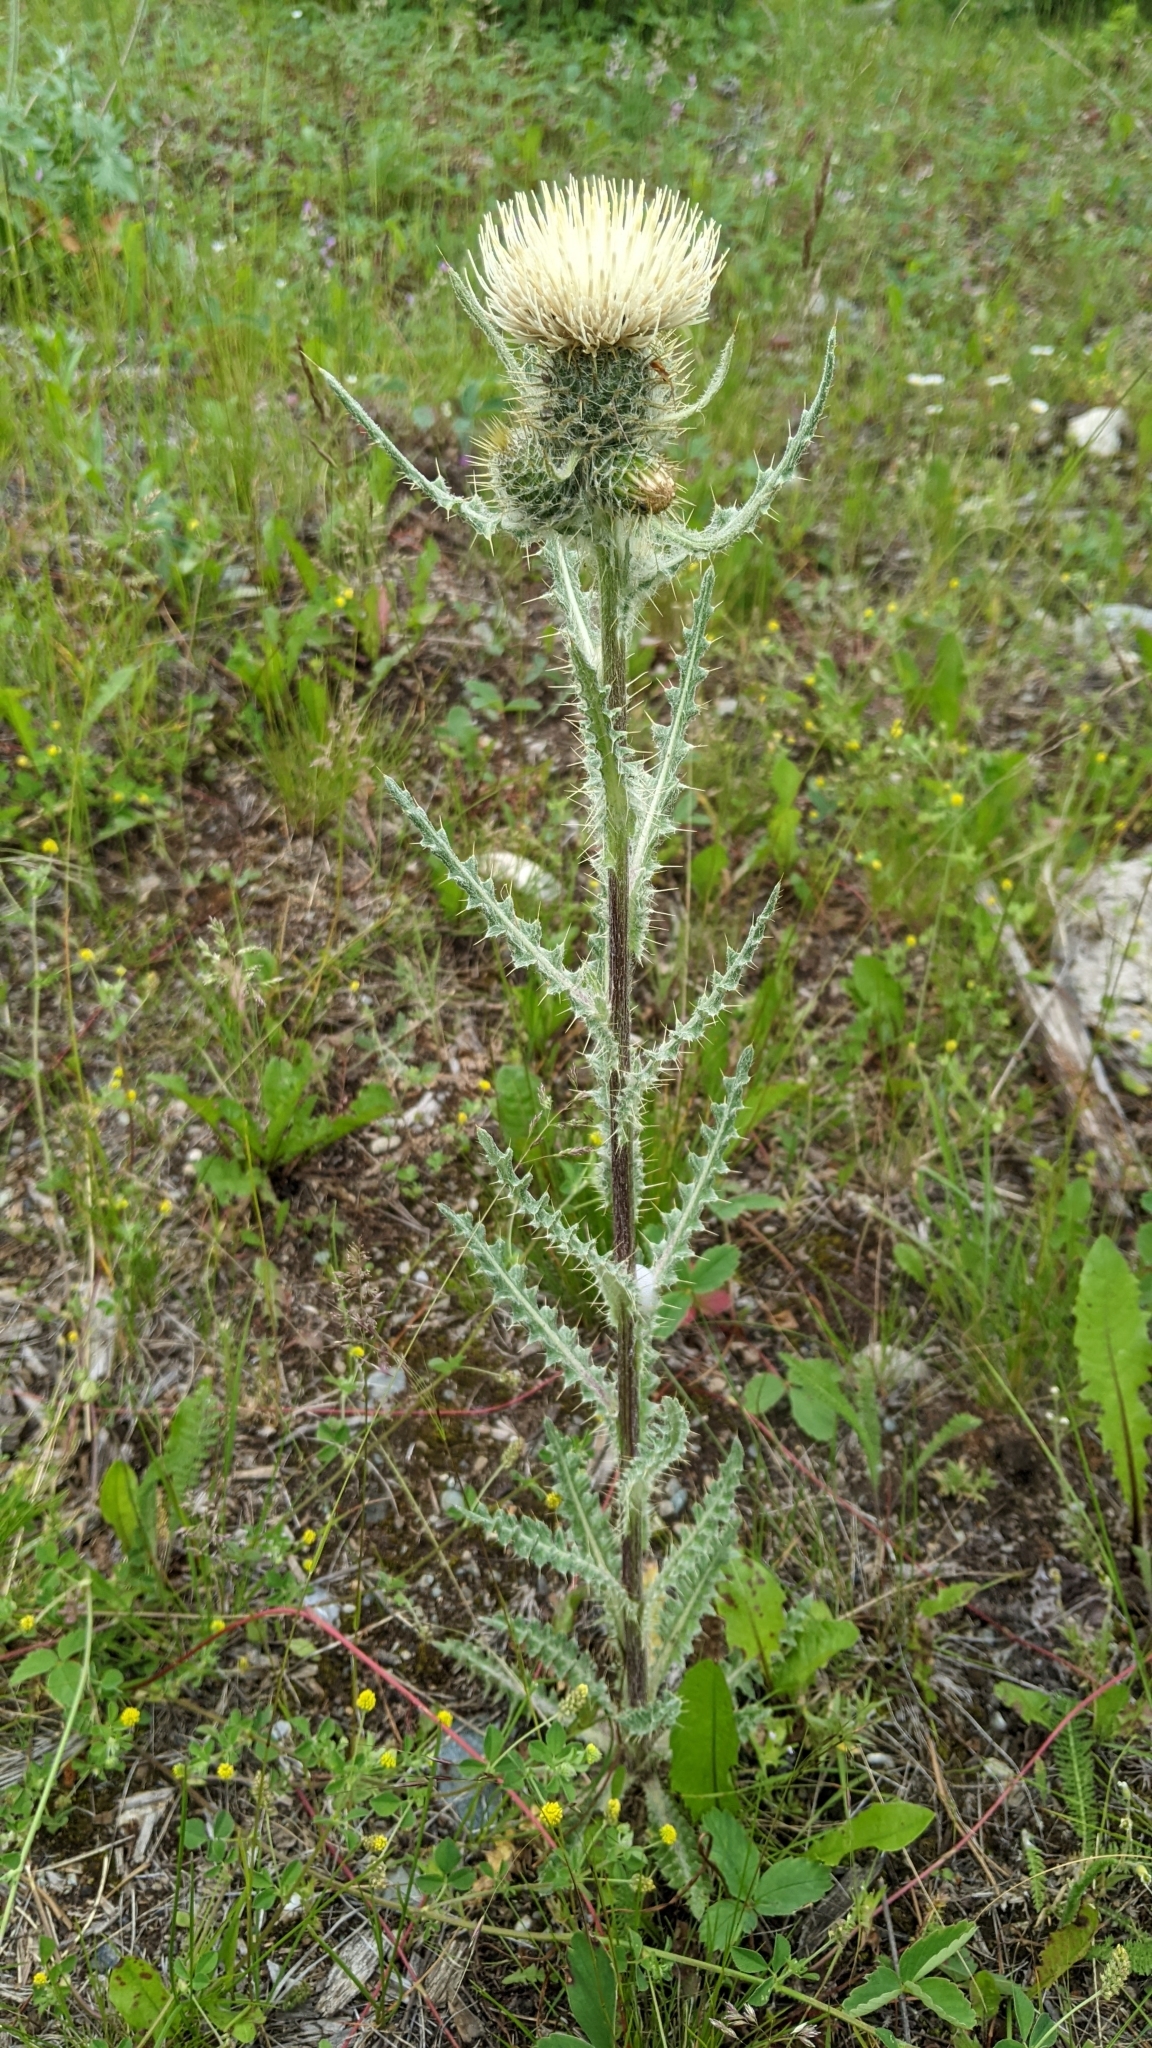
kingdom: Plantae
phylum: Tracheophyta
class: Magnoliopsida
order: Asterales
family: Asteraceae
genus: Cirsium
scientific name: Cirsium hookerianum
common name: Hooker's thistle
